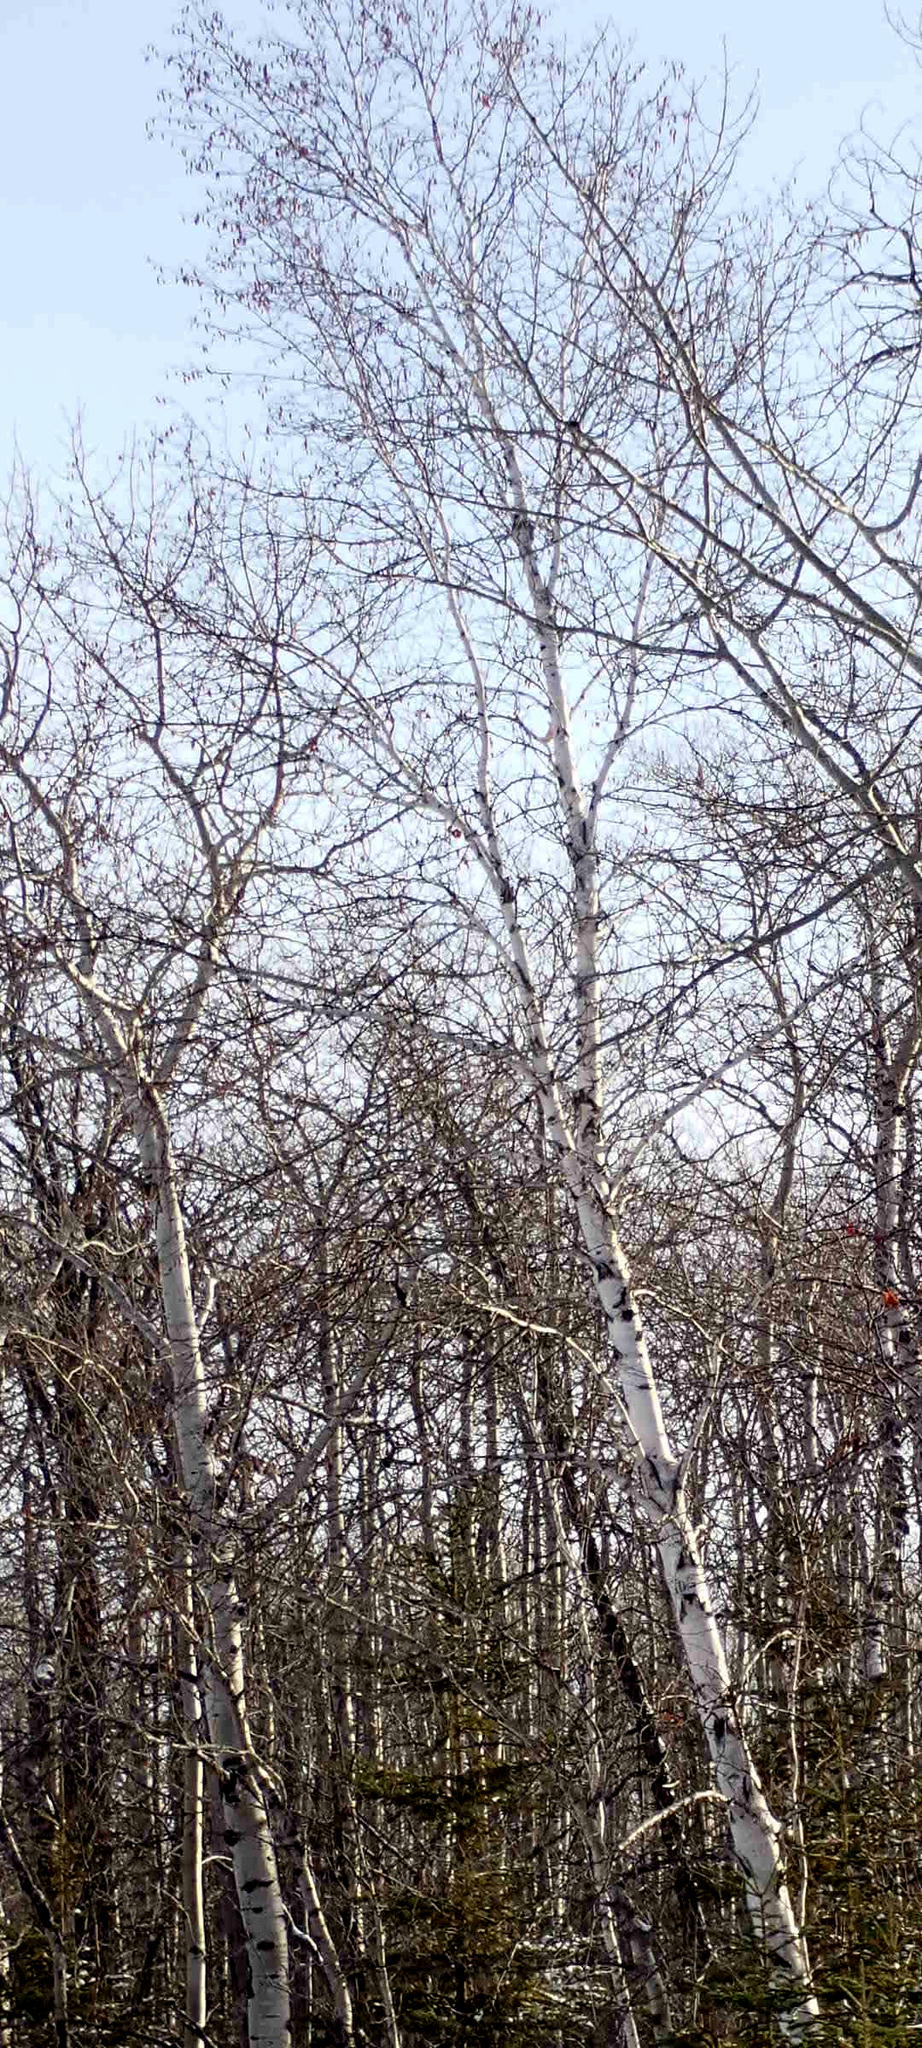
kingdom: Plantae
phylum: Tracheophyta
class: Magnoliopsida
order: Malpighiales
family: Salicaceae
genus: Populus
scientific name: Populus tremuloides
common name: Quaking aspen
